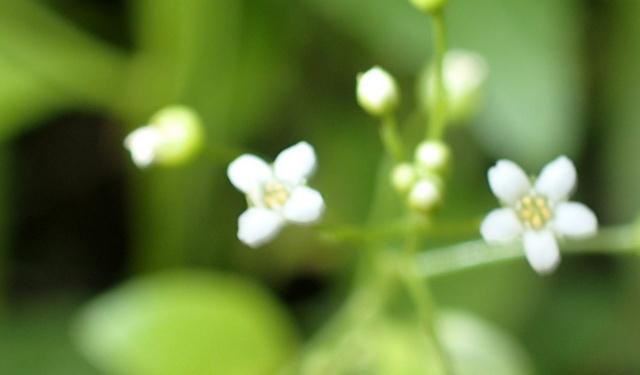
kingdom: Plantae
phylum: Tracheophyta
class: Magnoliopsida
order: Ericales
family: Primulaceae
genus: Samolus
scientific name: Samolus parviflorus
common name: False water pimpernel
